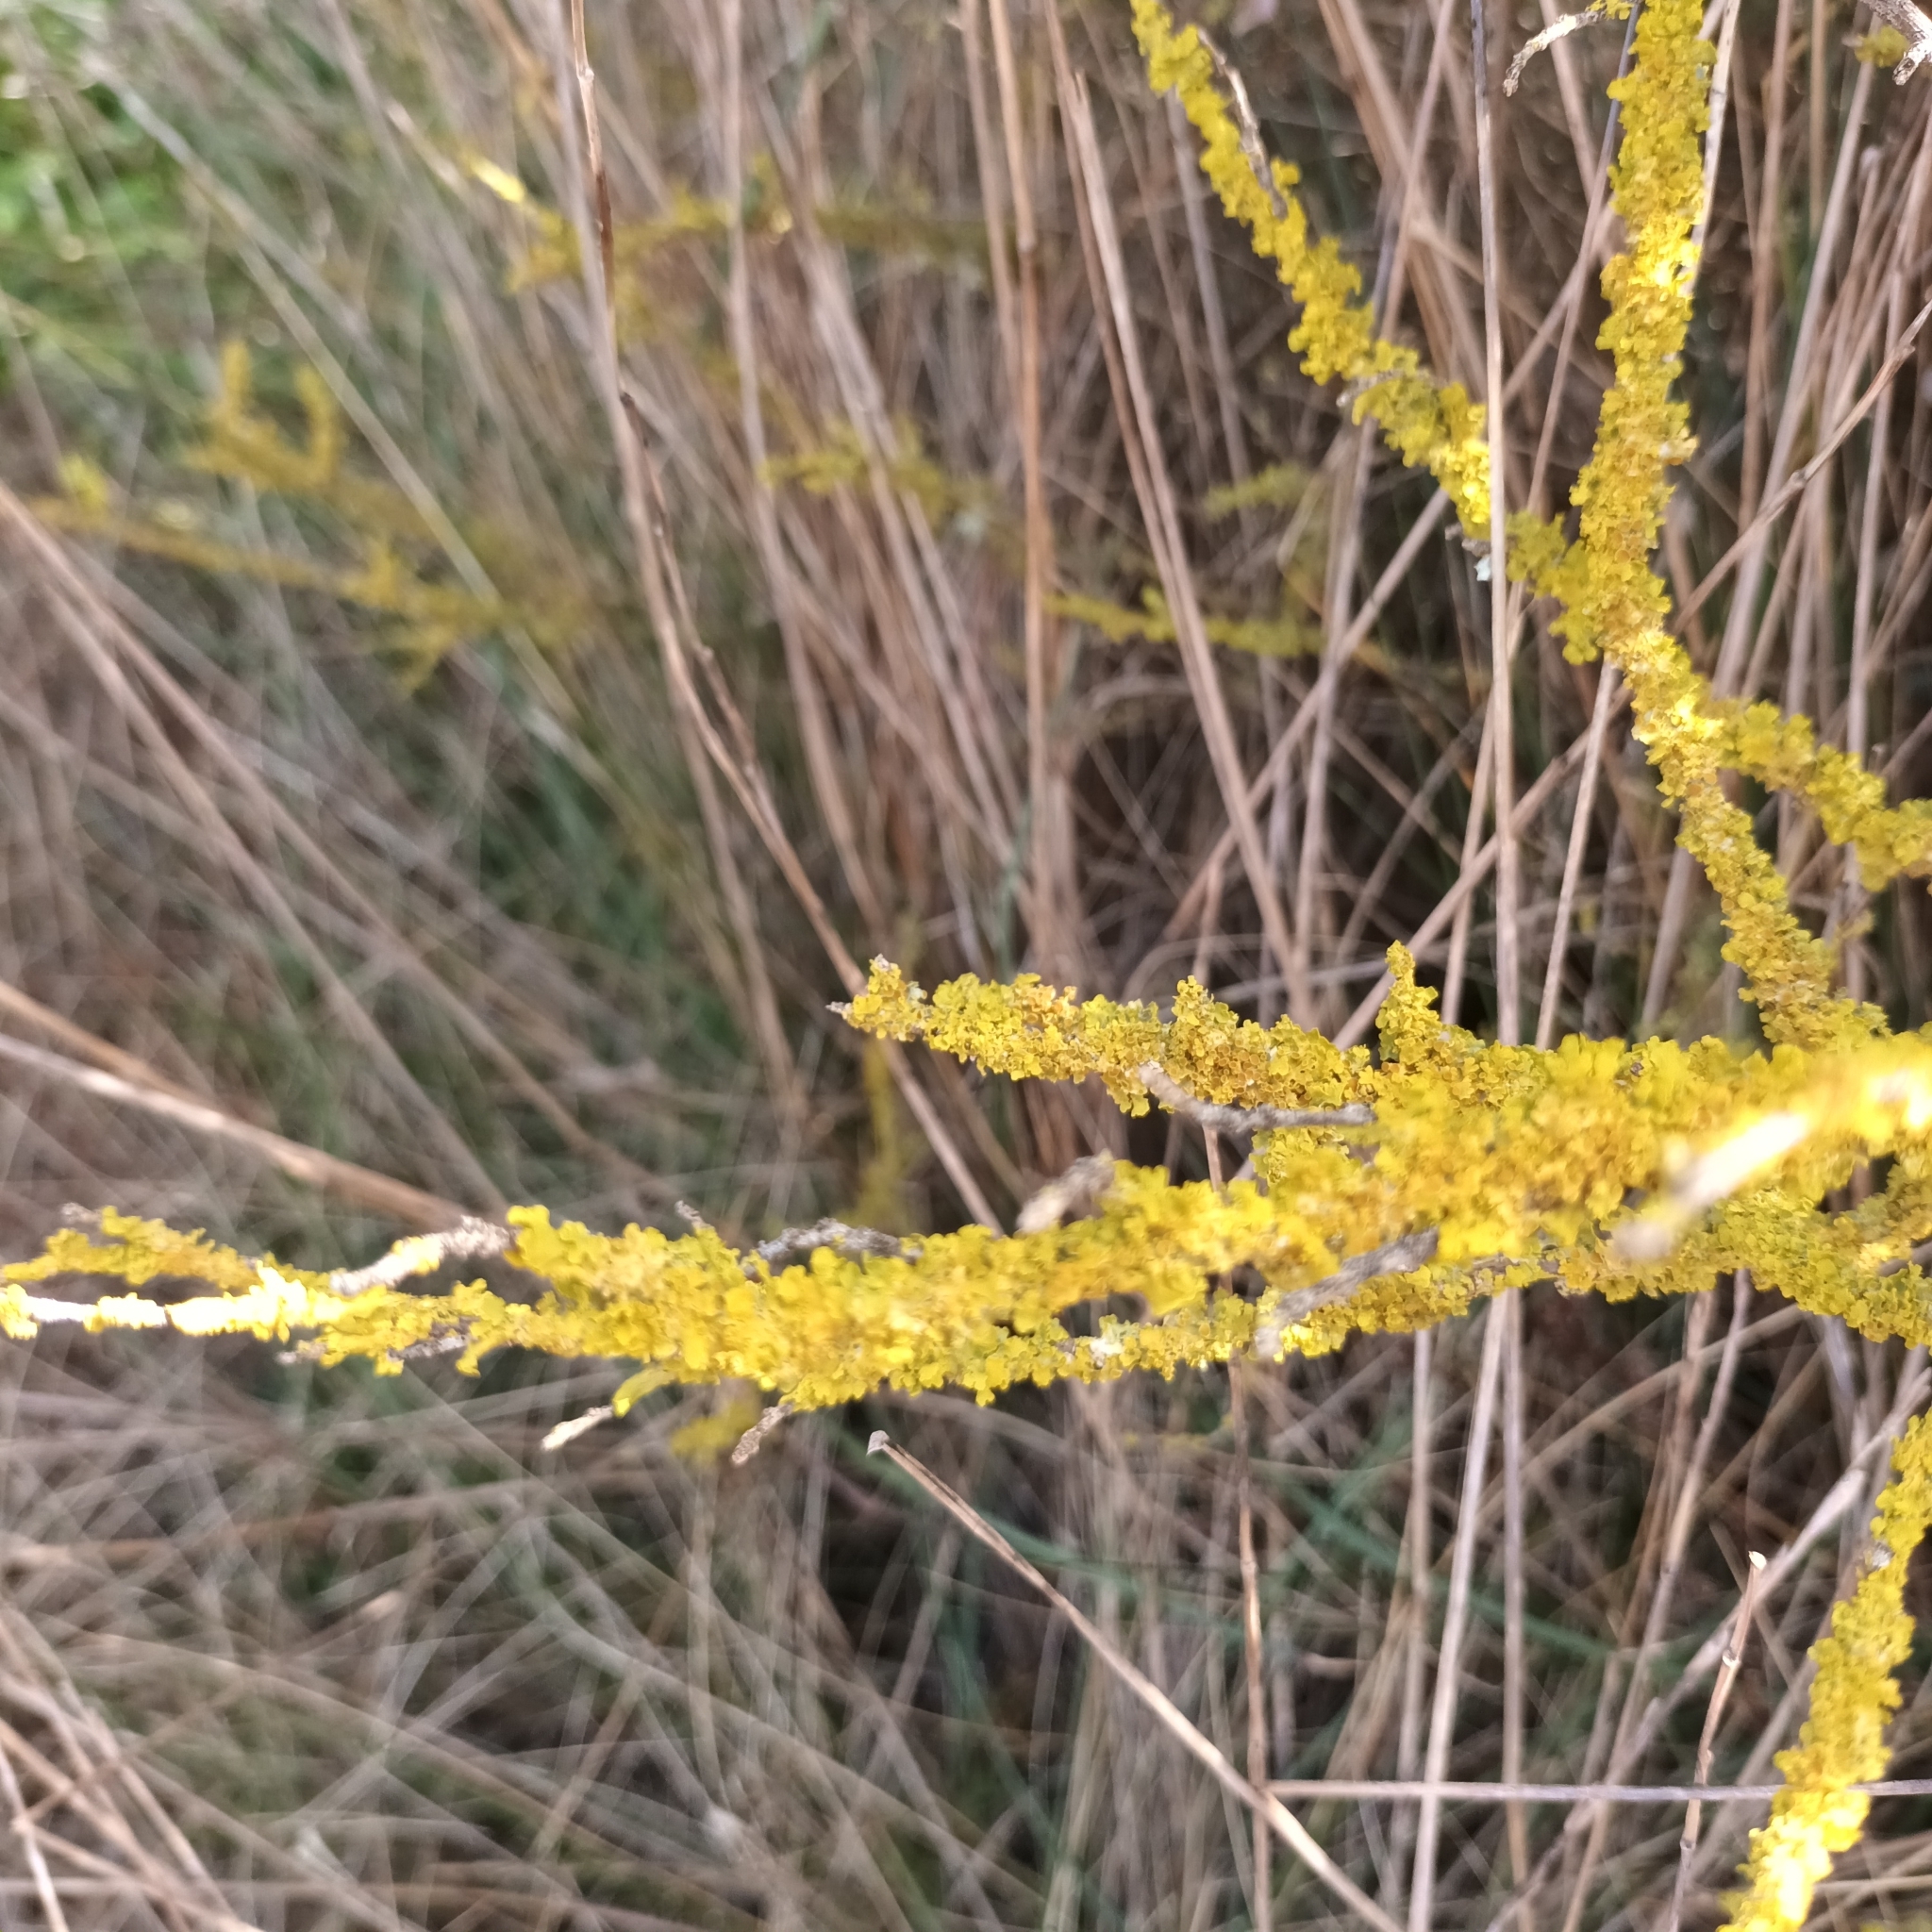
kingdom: Fungi
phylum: Ascomycota
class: Lecanoromycetes
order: Teloschistales
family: Teloschistaceae
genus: Xanthoria
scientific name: Xanthoria parietina
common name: Common orange lichen
